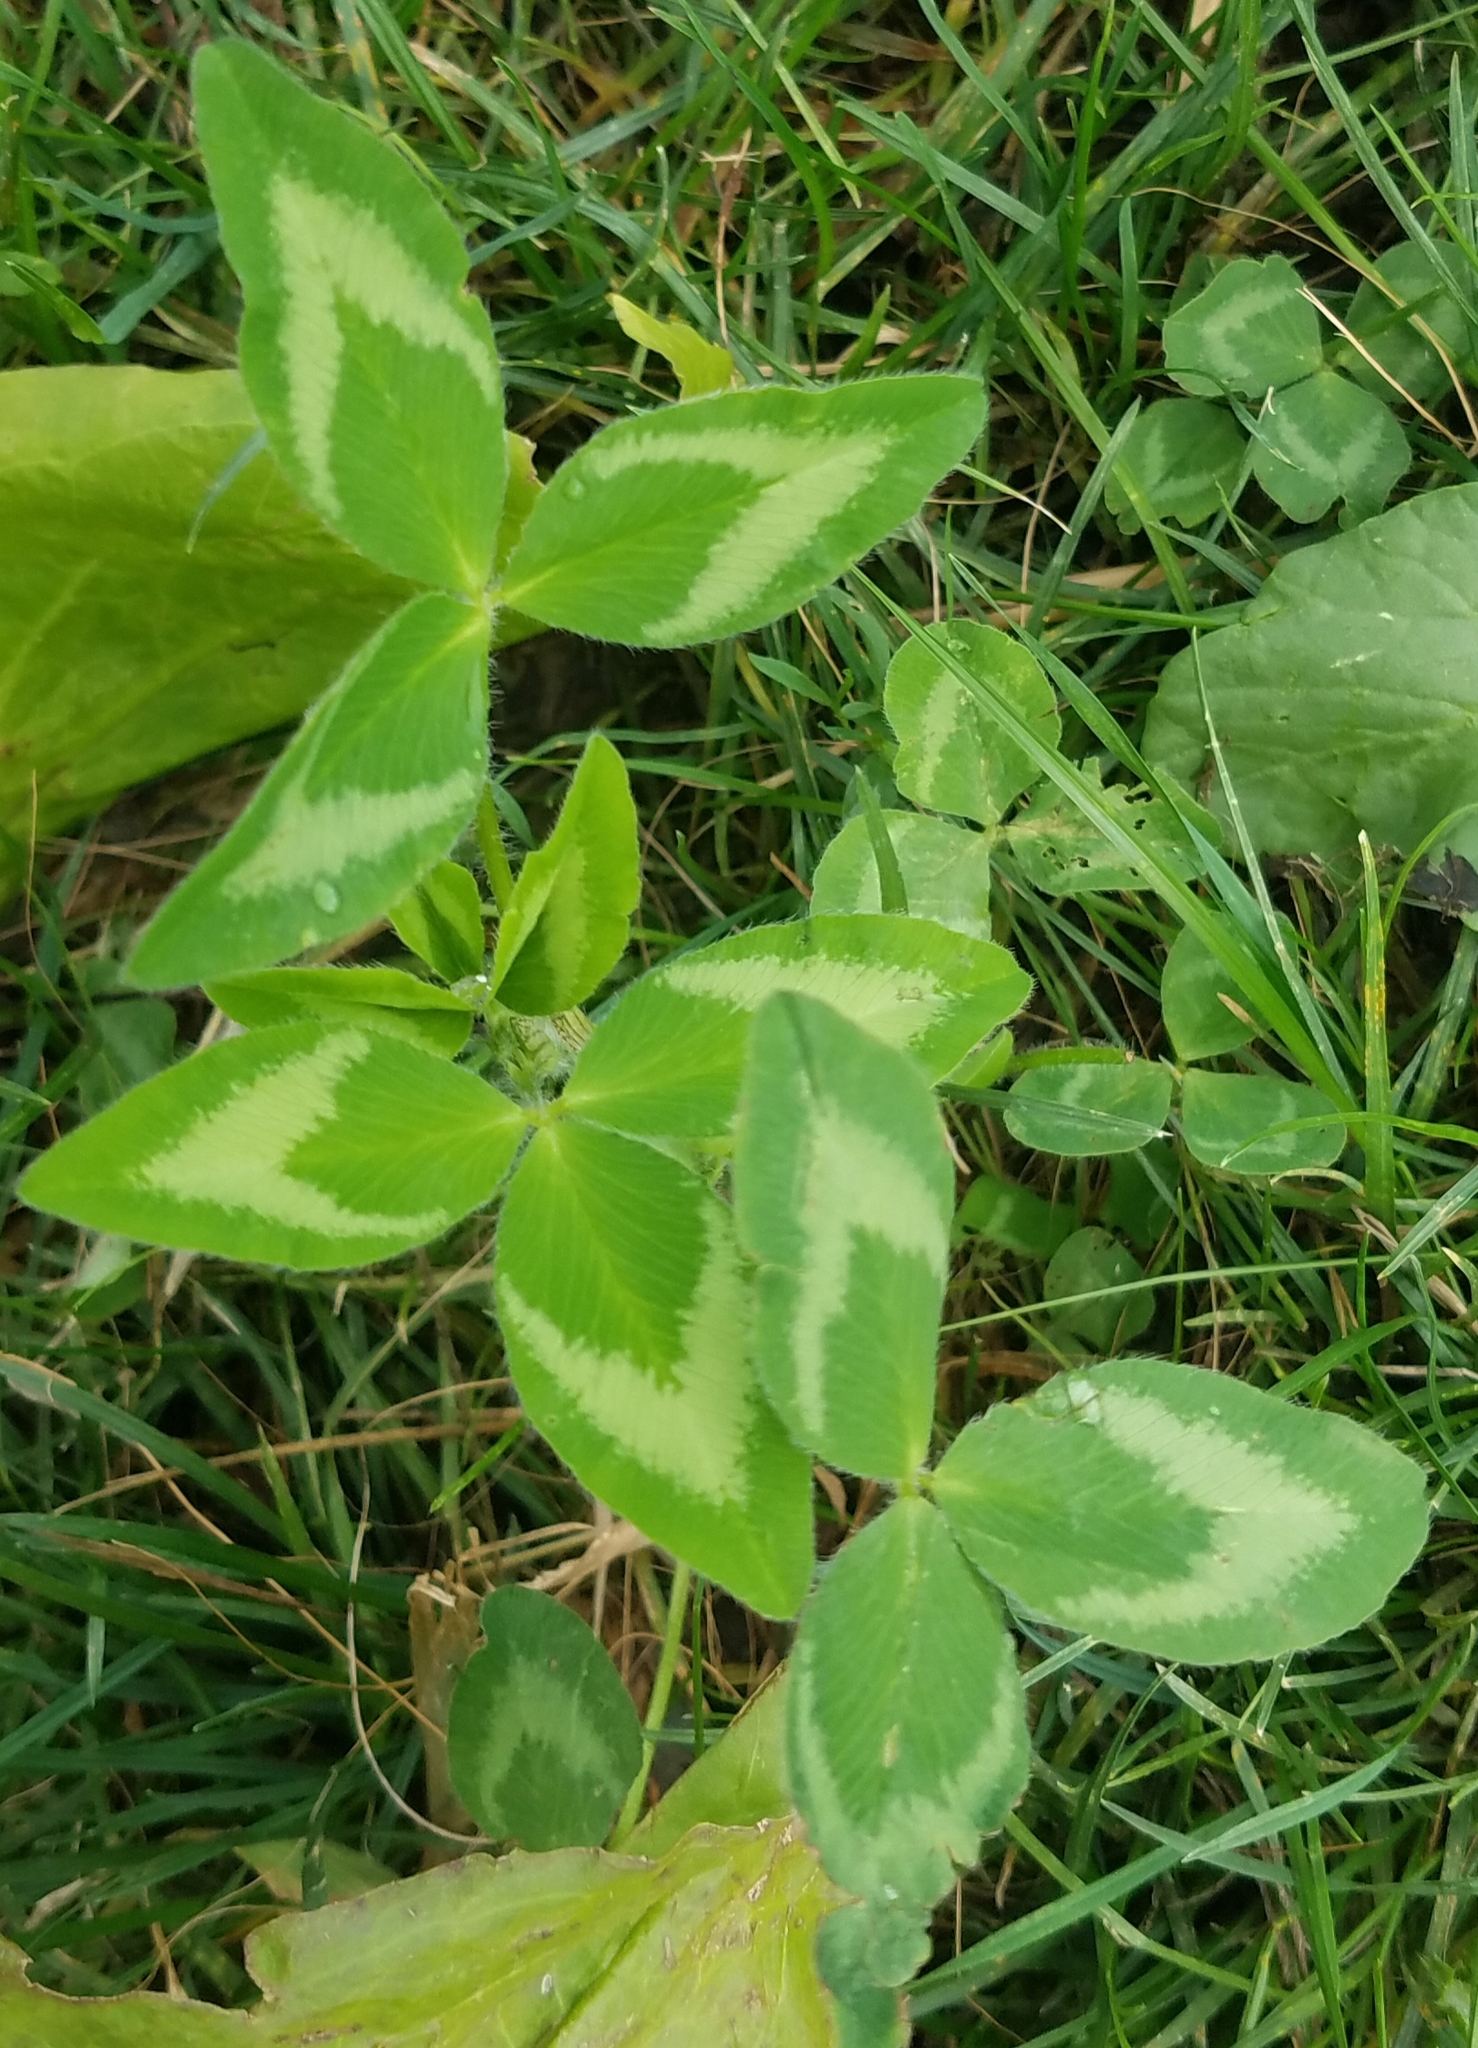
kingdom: Plantae
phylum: Tracheophyta
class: Magnoliopsida
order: Fabales
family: Fabaceae
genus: Trifolium
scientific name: Trifolium pratense
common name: Red clover
